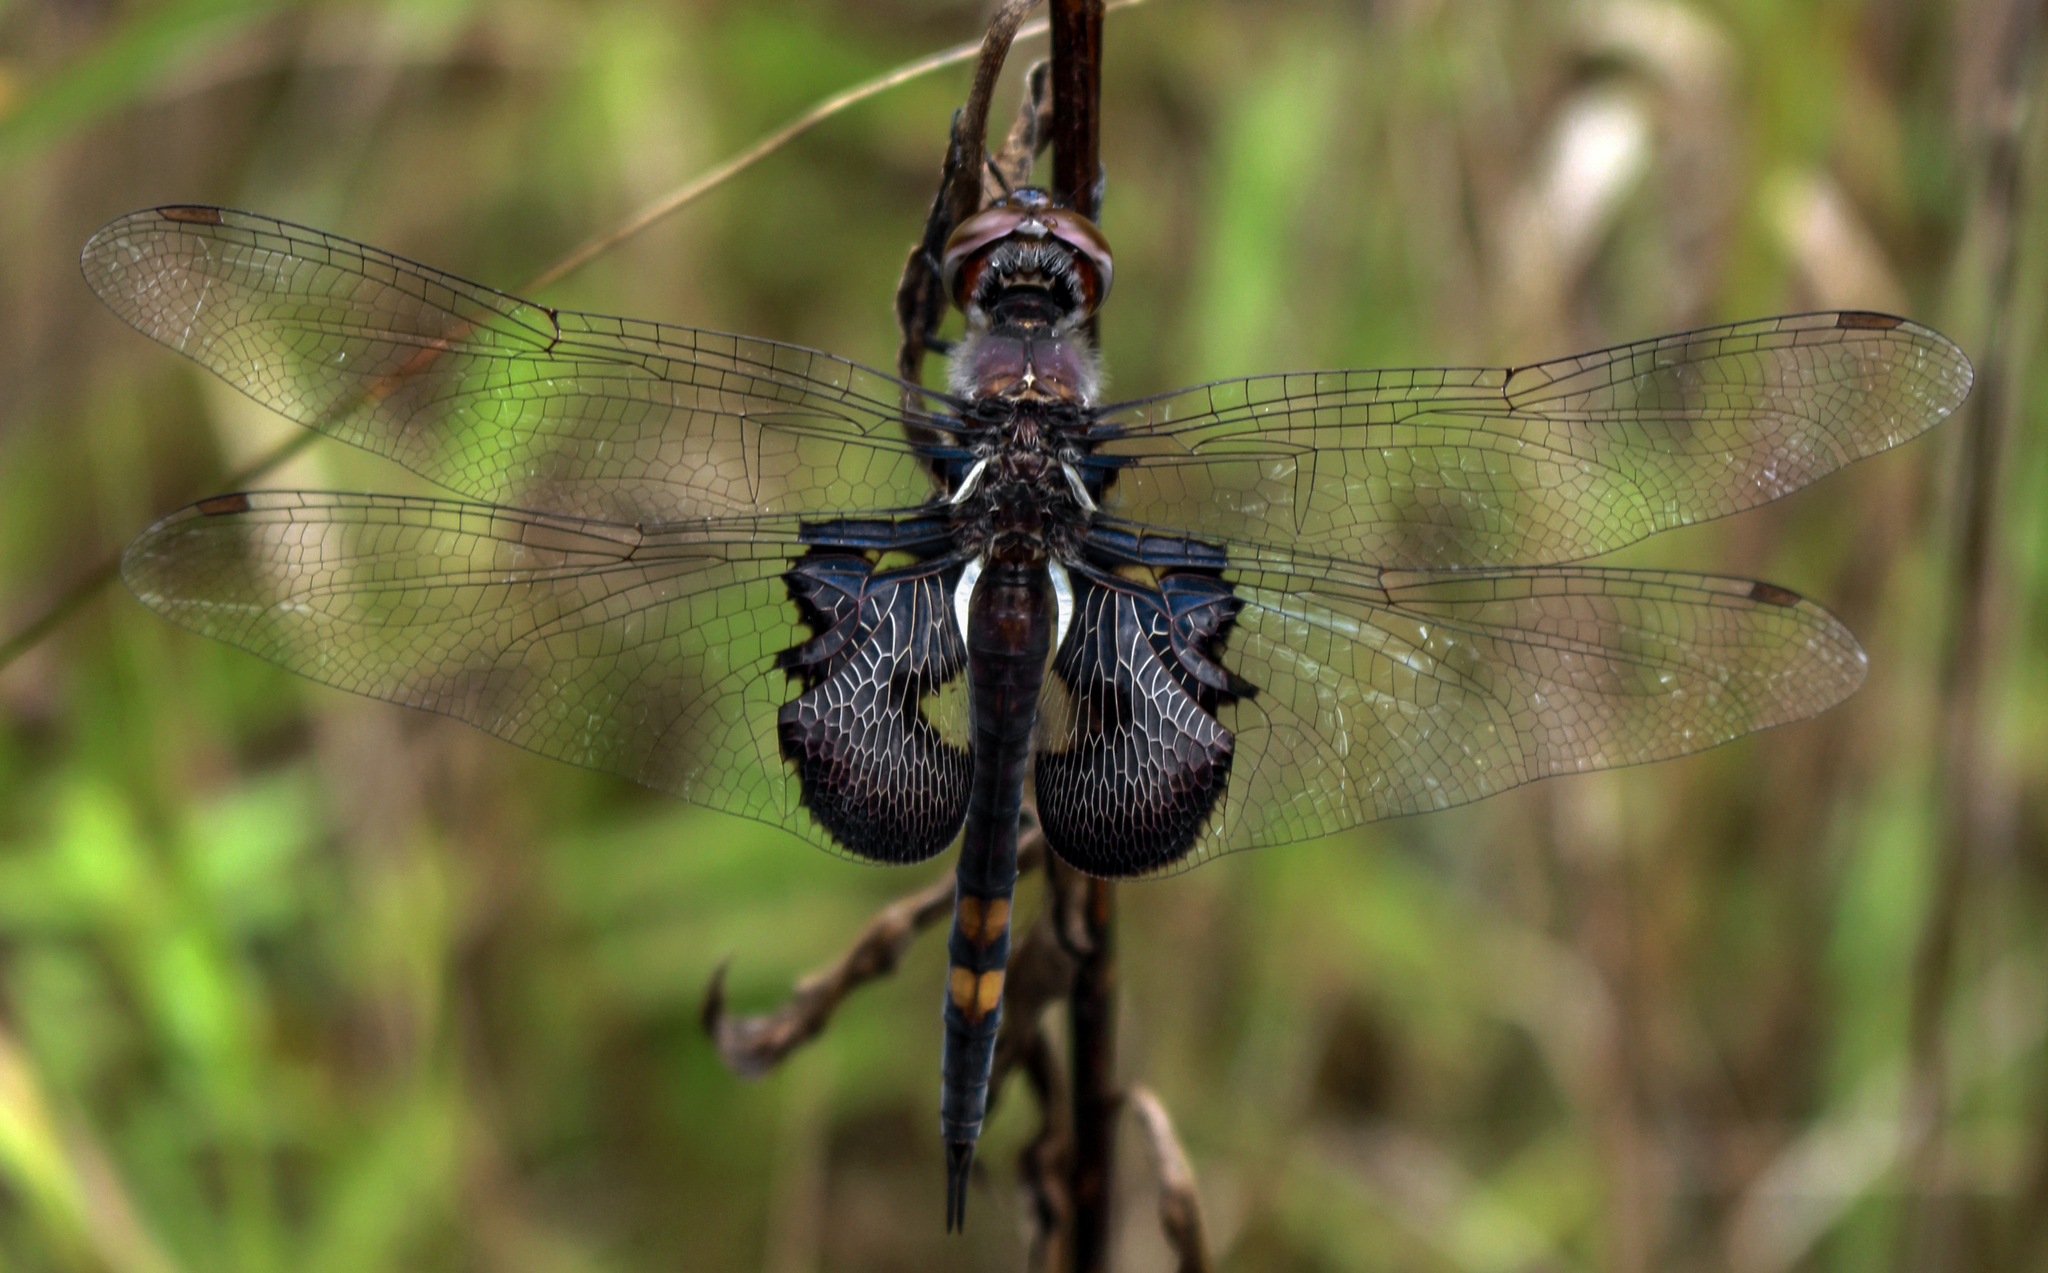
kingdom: Animalia
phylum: Arthropoda
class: Insecta
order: Odonata
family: Libellulidae
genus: Tramea
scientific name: Tramea lacerata
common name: Black saddlebags
